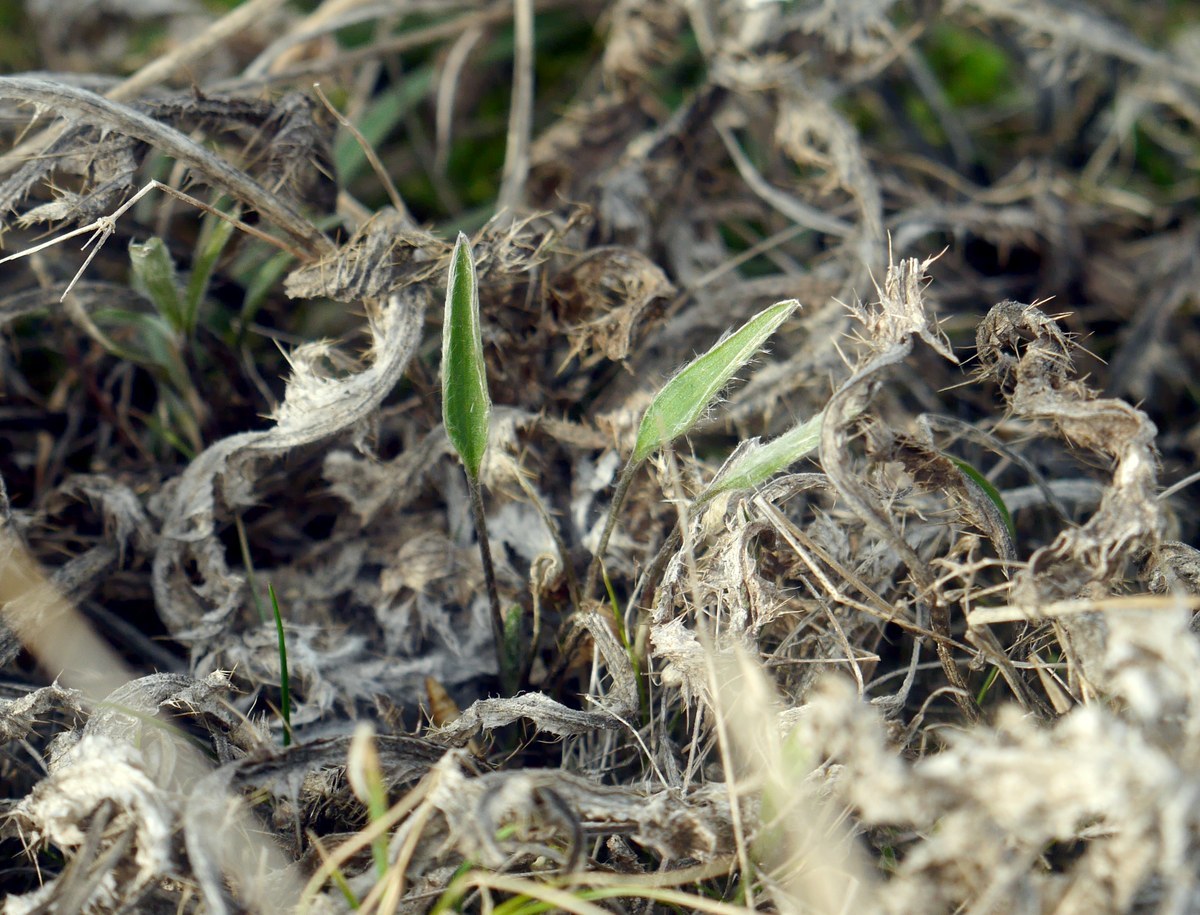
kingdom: Plantae
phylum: Tracheophyta
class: Magnoliopsida
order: Ranunculales
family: Ranunculaceae
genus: Ranunculus
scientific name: Ranunculus illyricus
